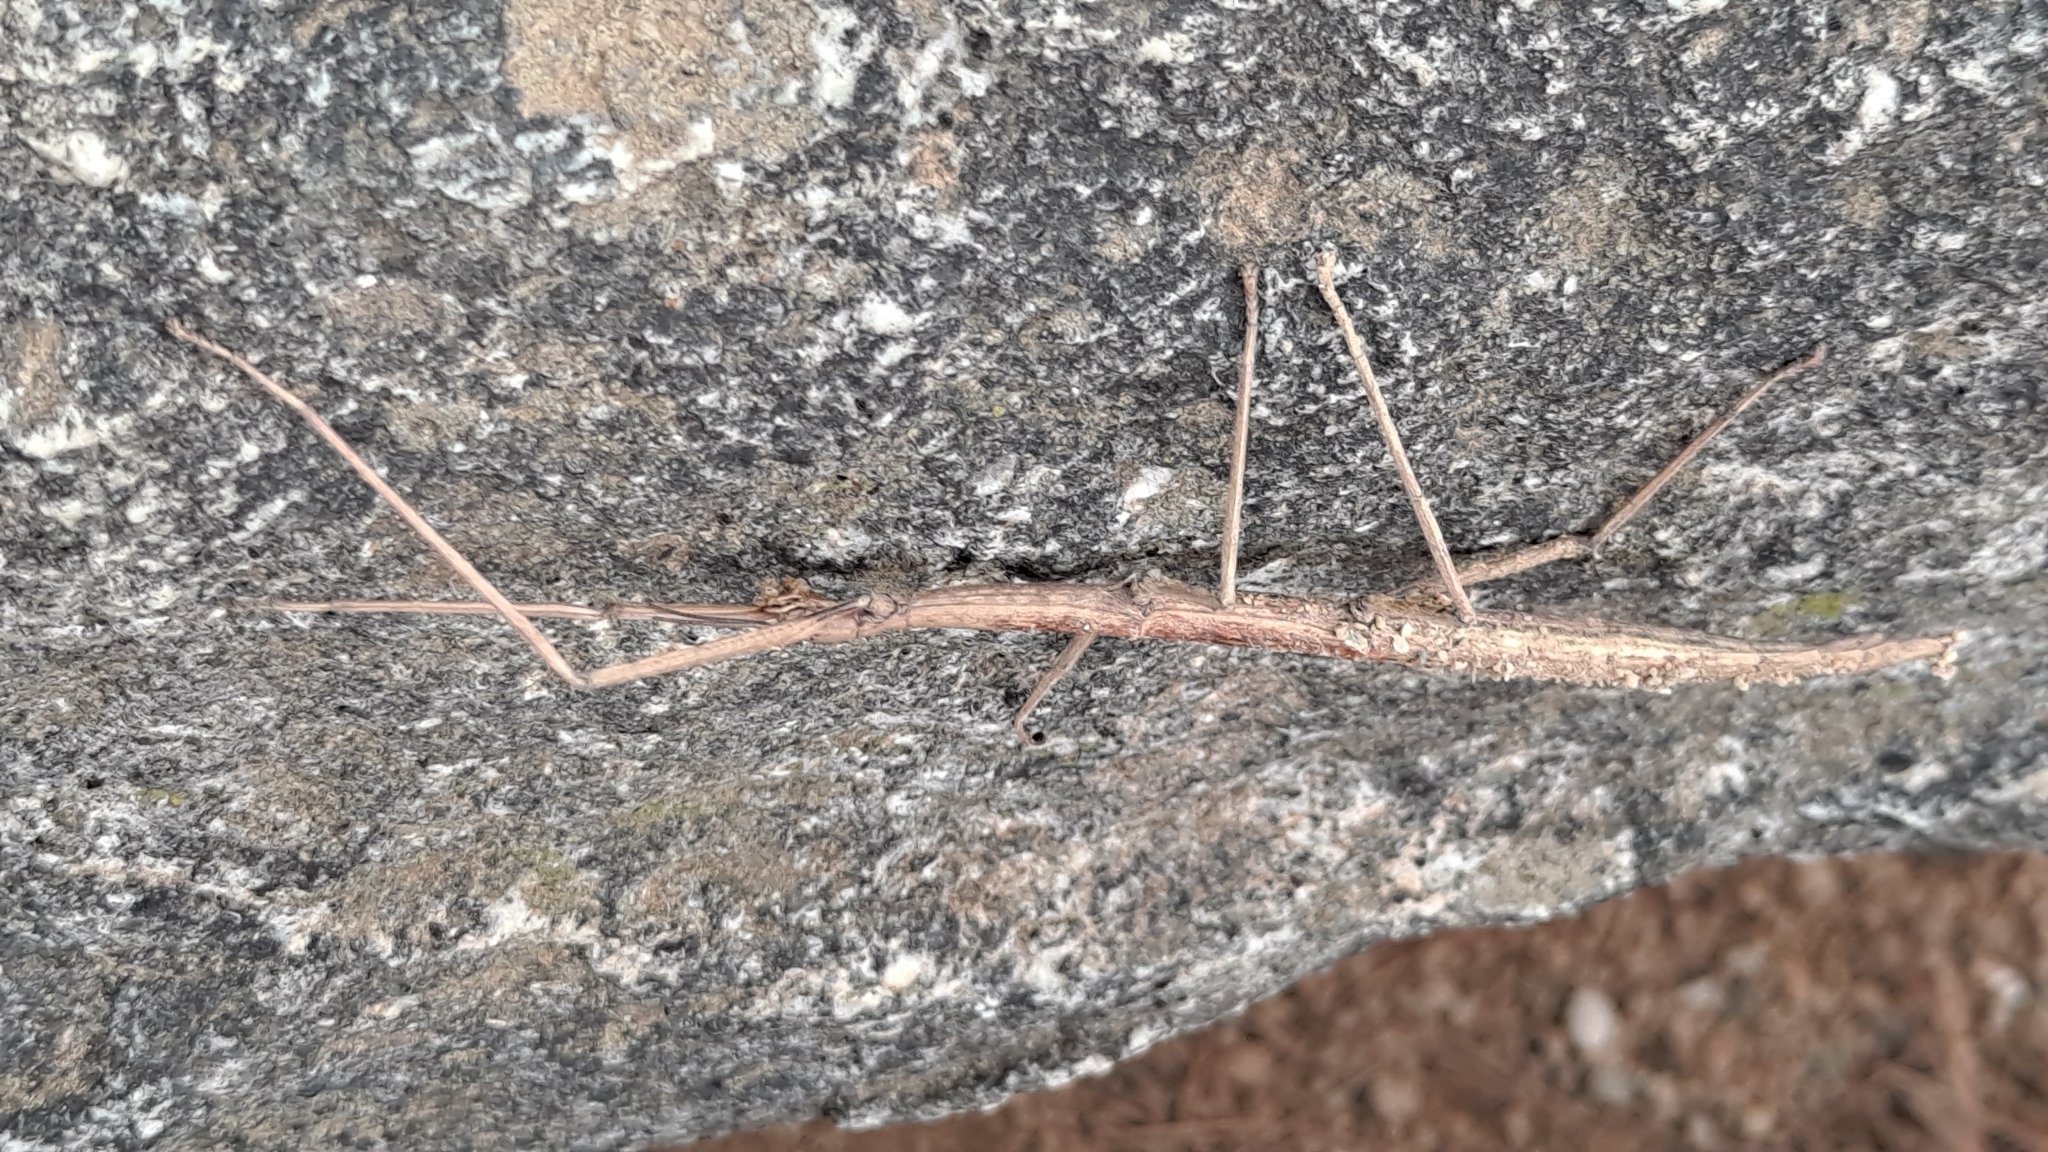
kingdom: Animalia
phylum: Arthropoda
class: Insecta
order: Phasmida
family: Bacillidae
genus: Bacillus
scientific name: Bacillus rossius
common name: Corsican stick-insect
